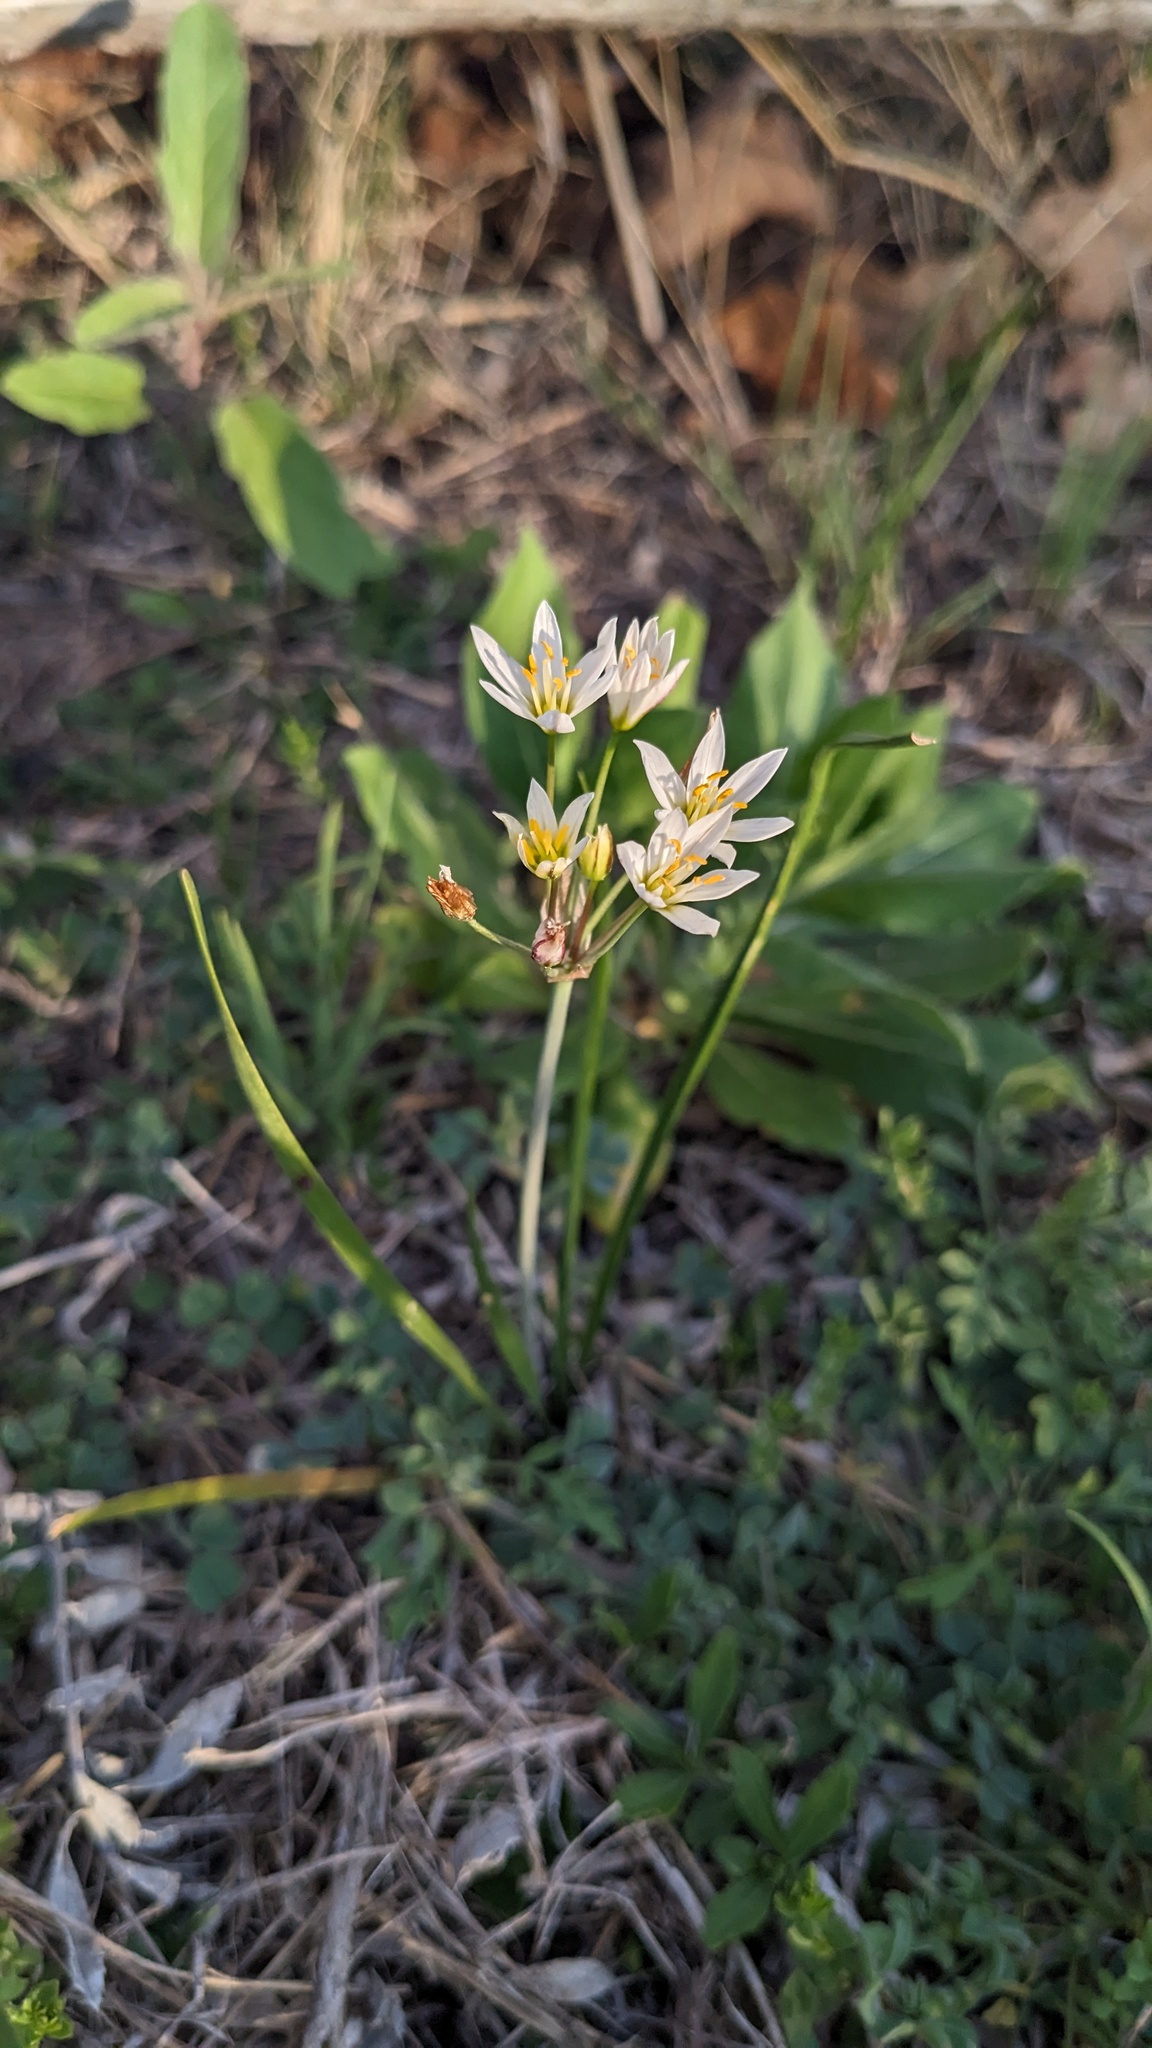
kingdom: Plantae
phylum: Tracheophyta
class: Liliopsida
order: Asparagales
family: Amaryllidaceae
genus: Nothoscordum
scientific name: Nothoscordum bivalve
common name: Crow-poison
